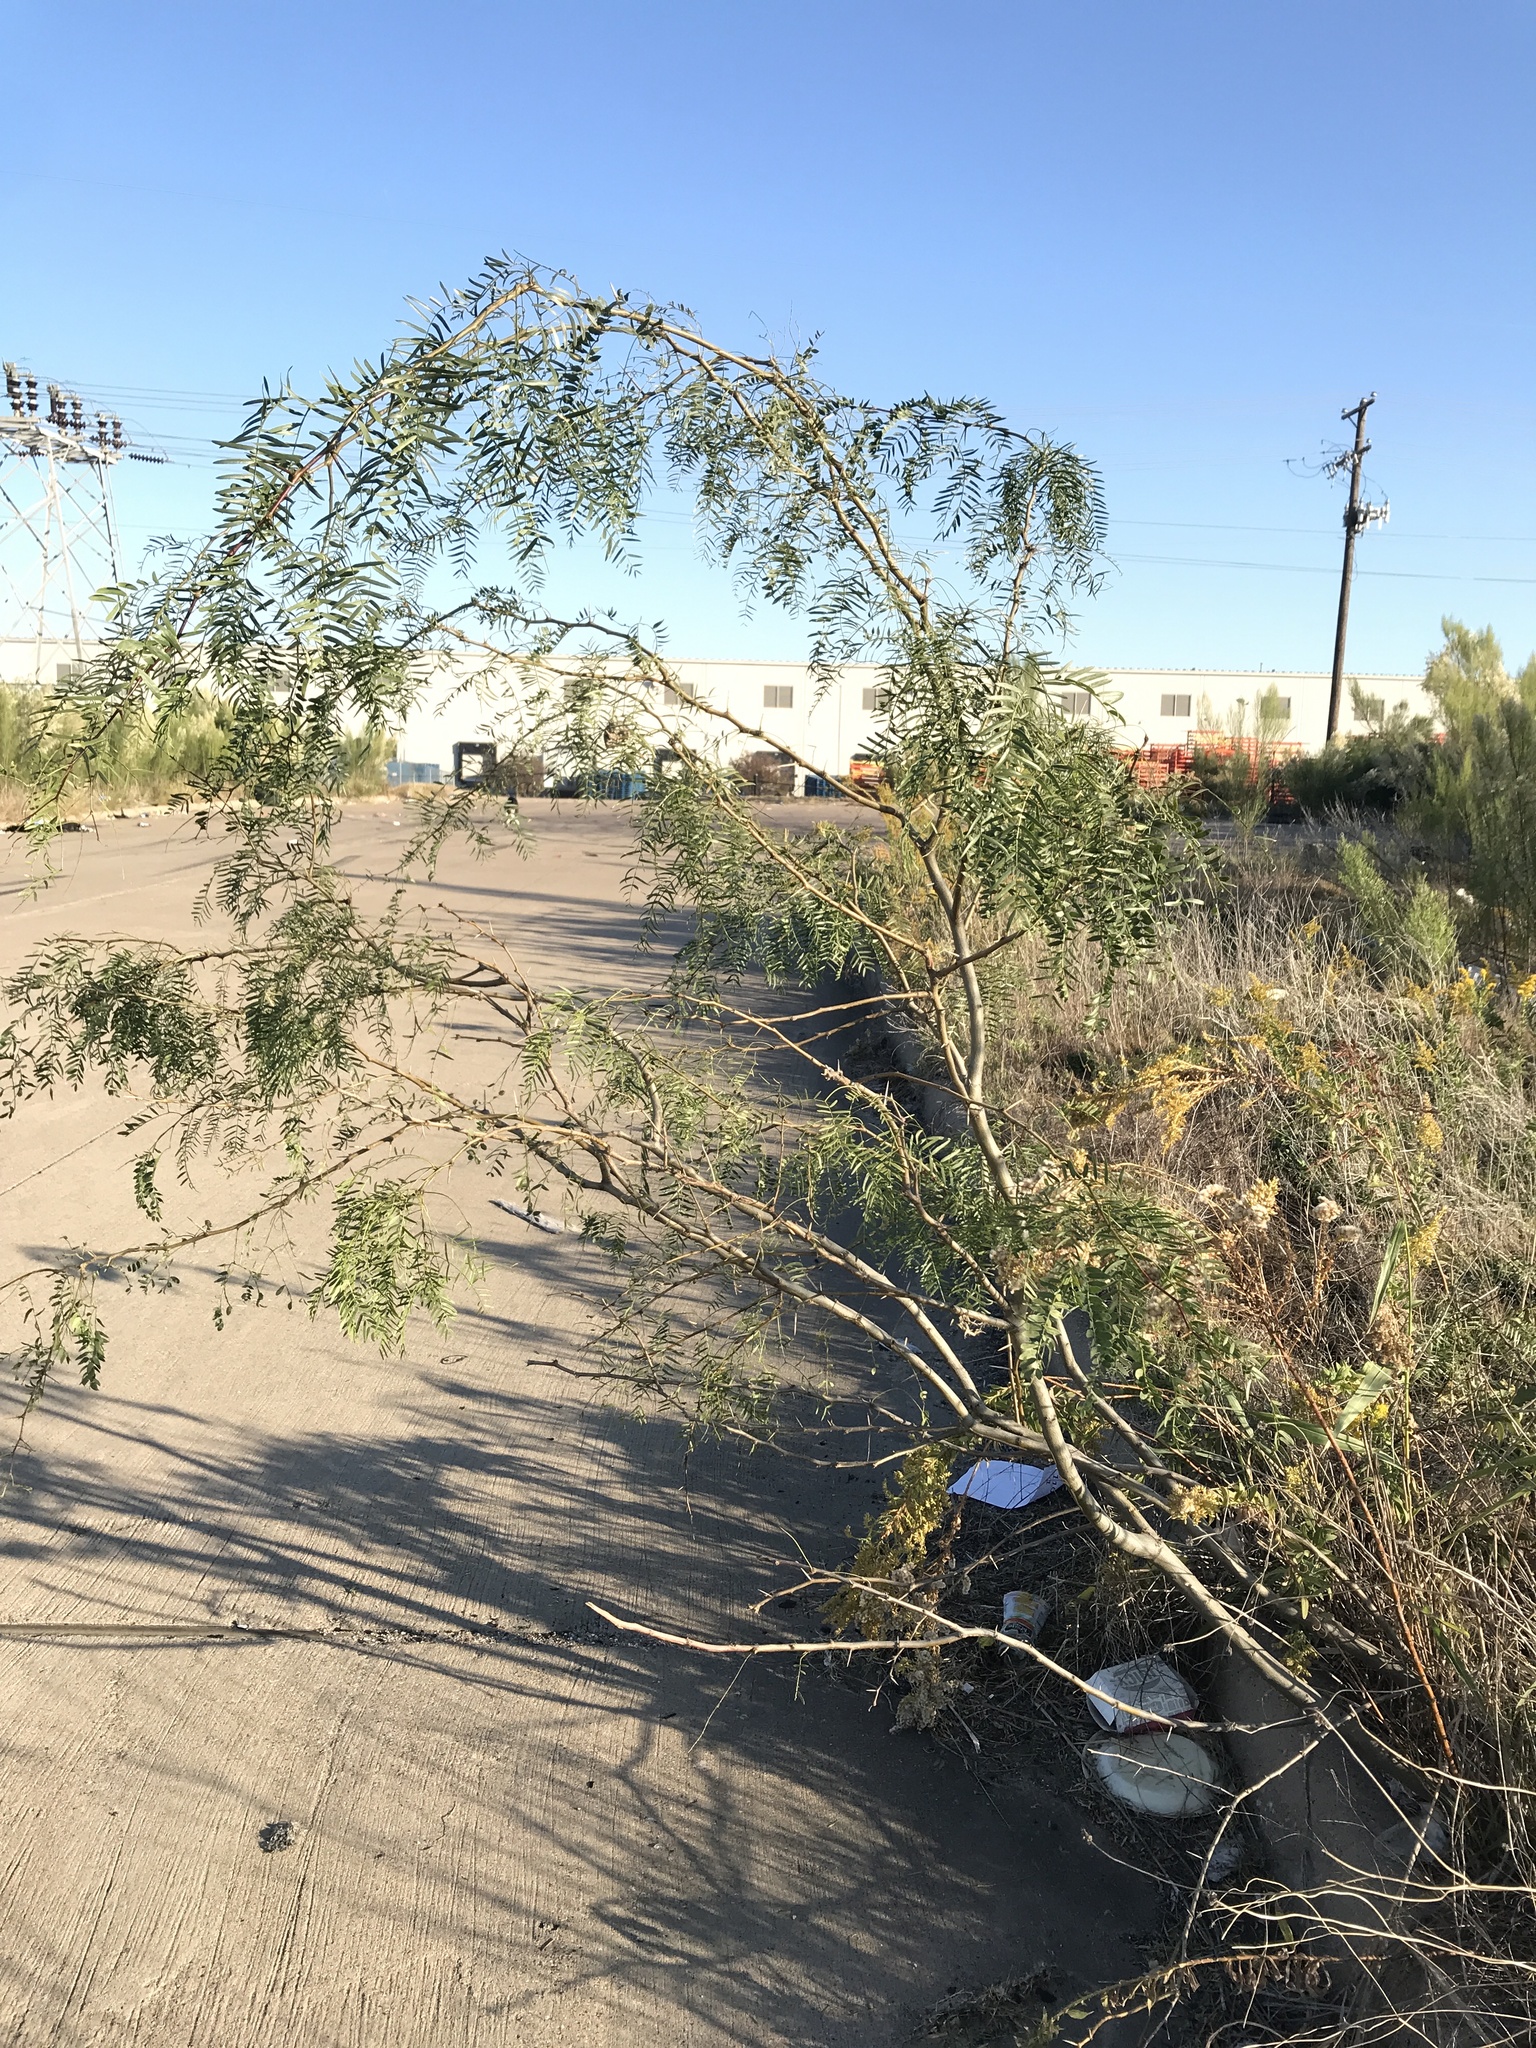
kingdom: Plantae
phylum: Tracheophyta
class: Magnoliopsida
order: Fabales
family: Fabaceae
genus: Prosopis
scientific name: Prosopis glandulosa
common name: Honey mesquite
